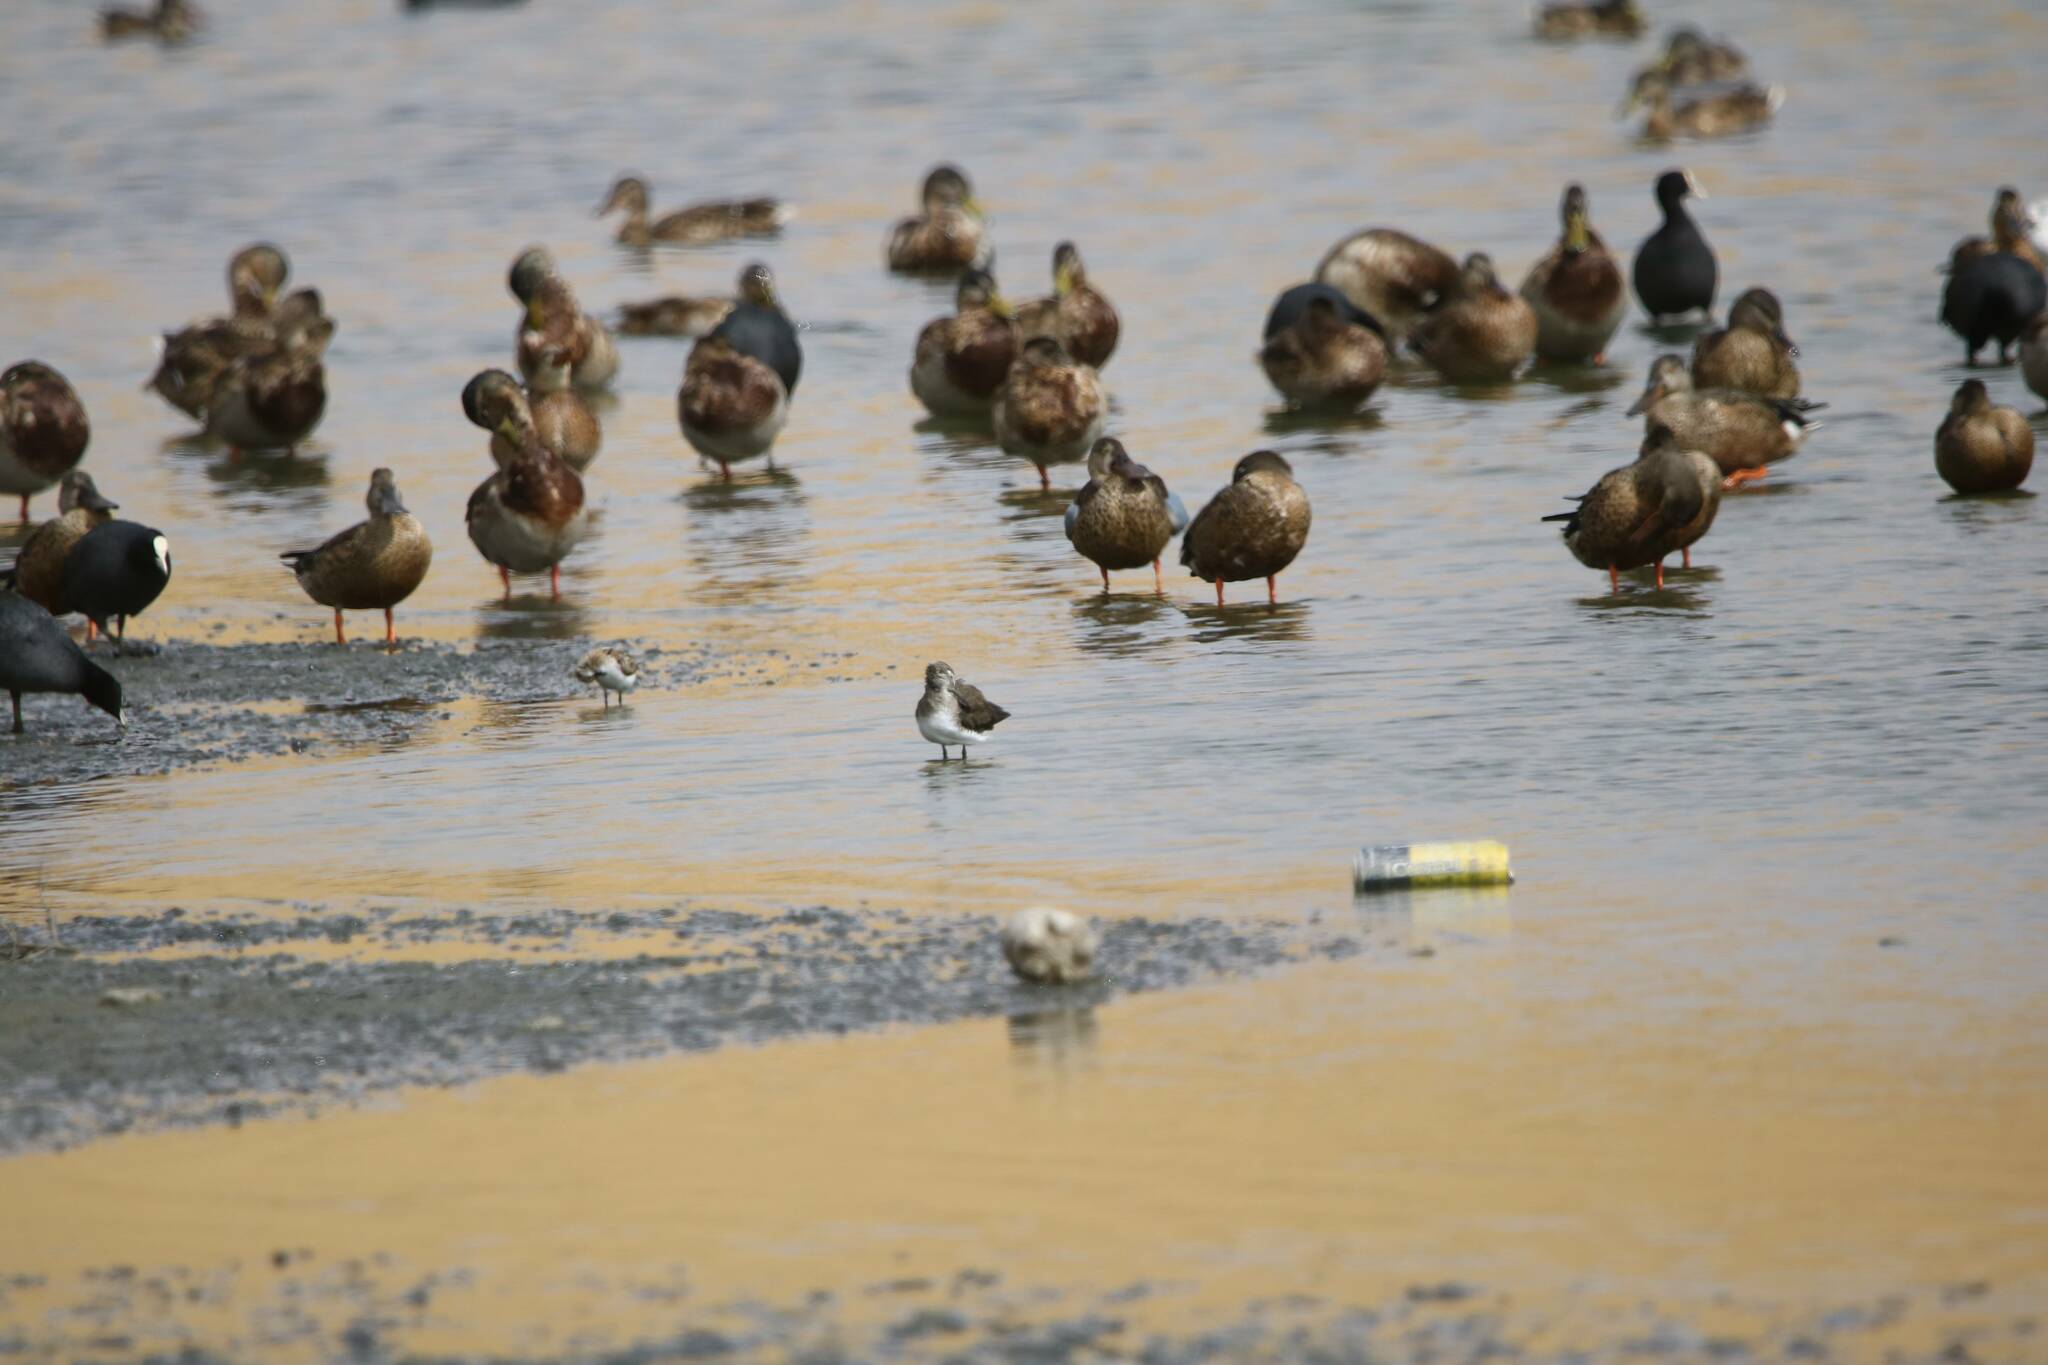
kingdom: Animalia
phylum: Chordata
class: Aves
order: Anseriformes
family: Anatidae
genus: Spatula
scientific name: Spatula clypeata
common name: Northern shoveler
